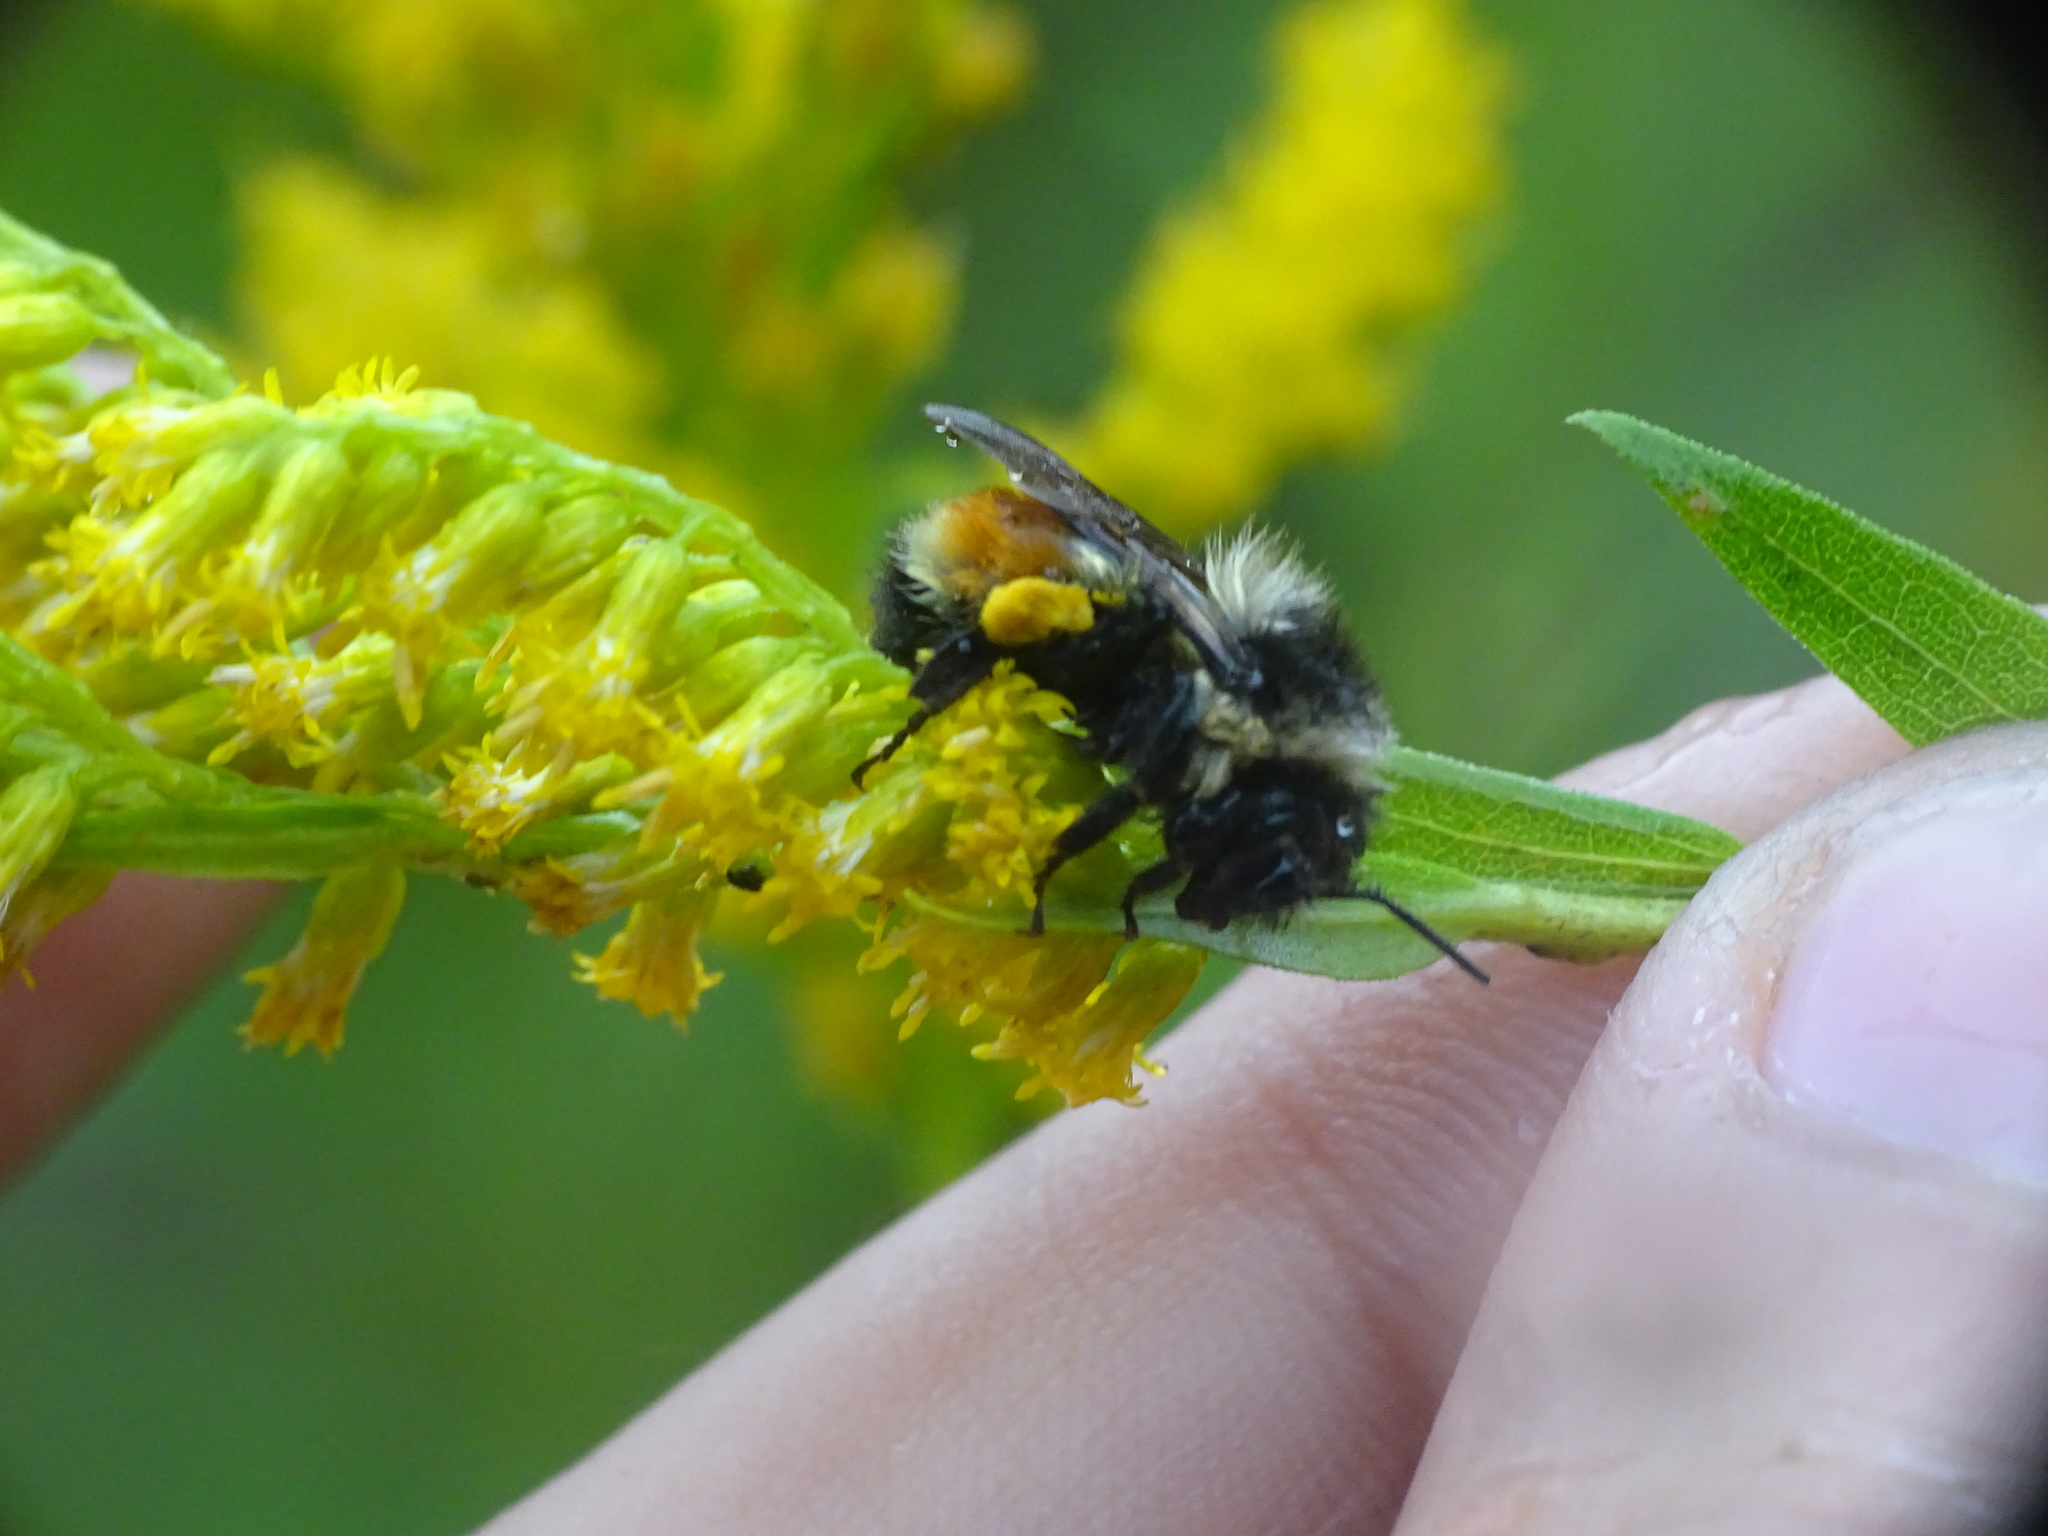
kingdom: Animalia
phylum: Arthropoda
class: Insecta
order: Hymenoptera
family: Apidae
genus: Bombus
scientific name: Bombus ternarius
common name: Tri-colored bumble bee
